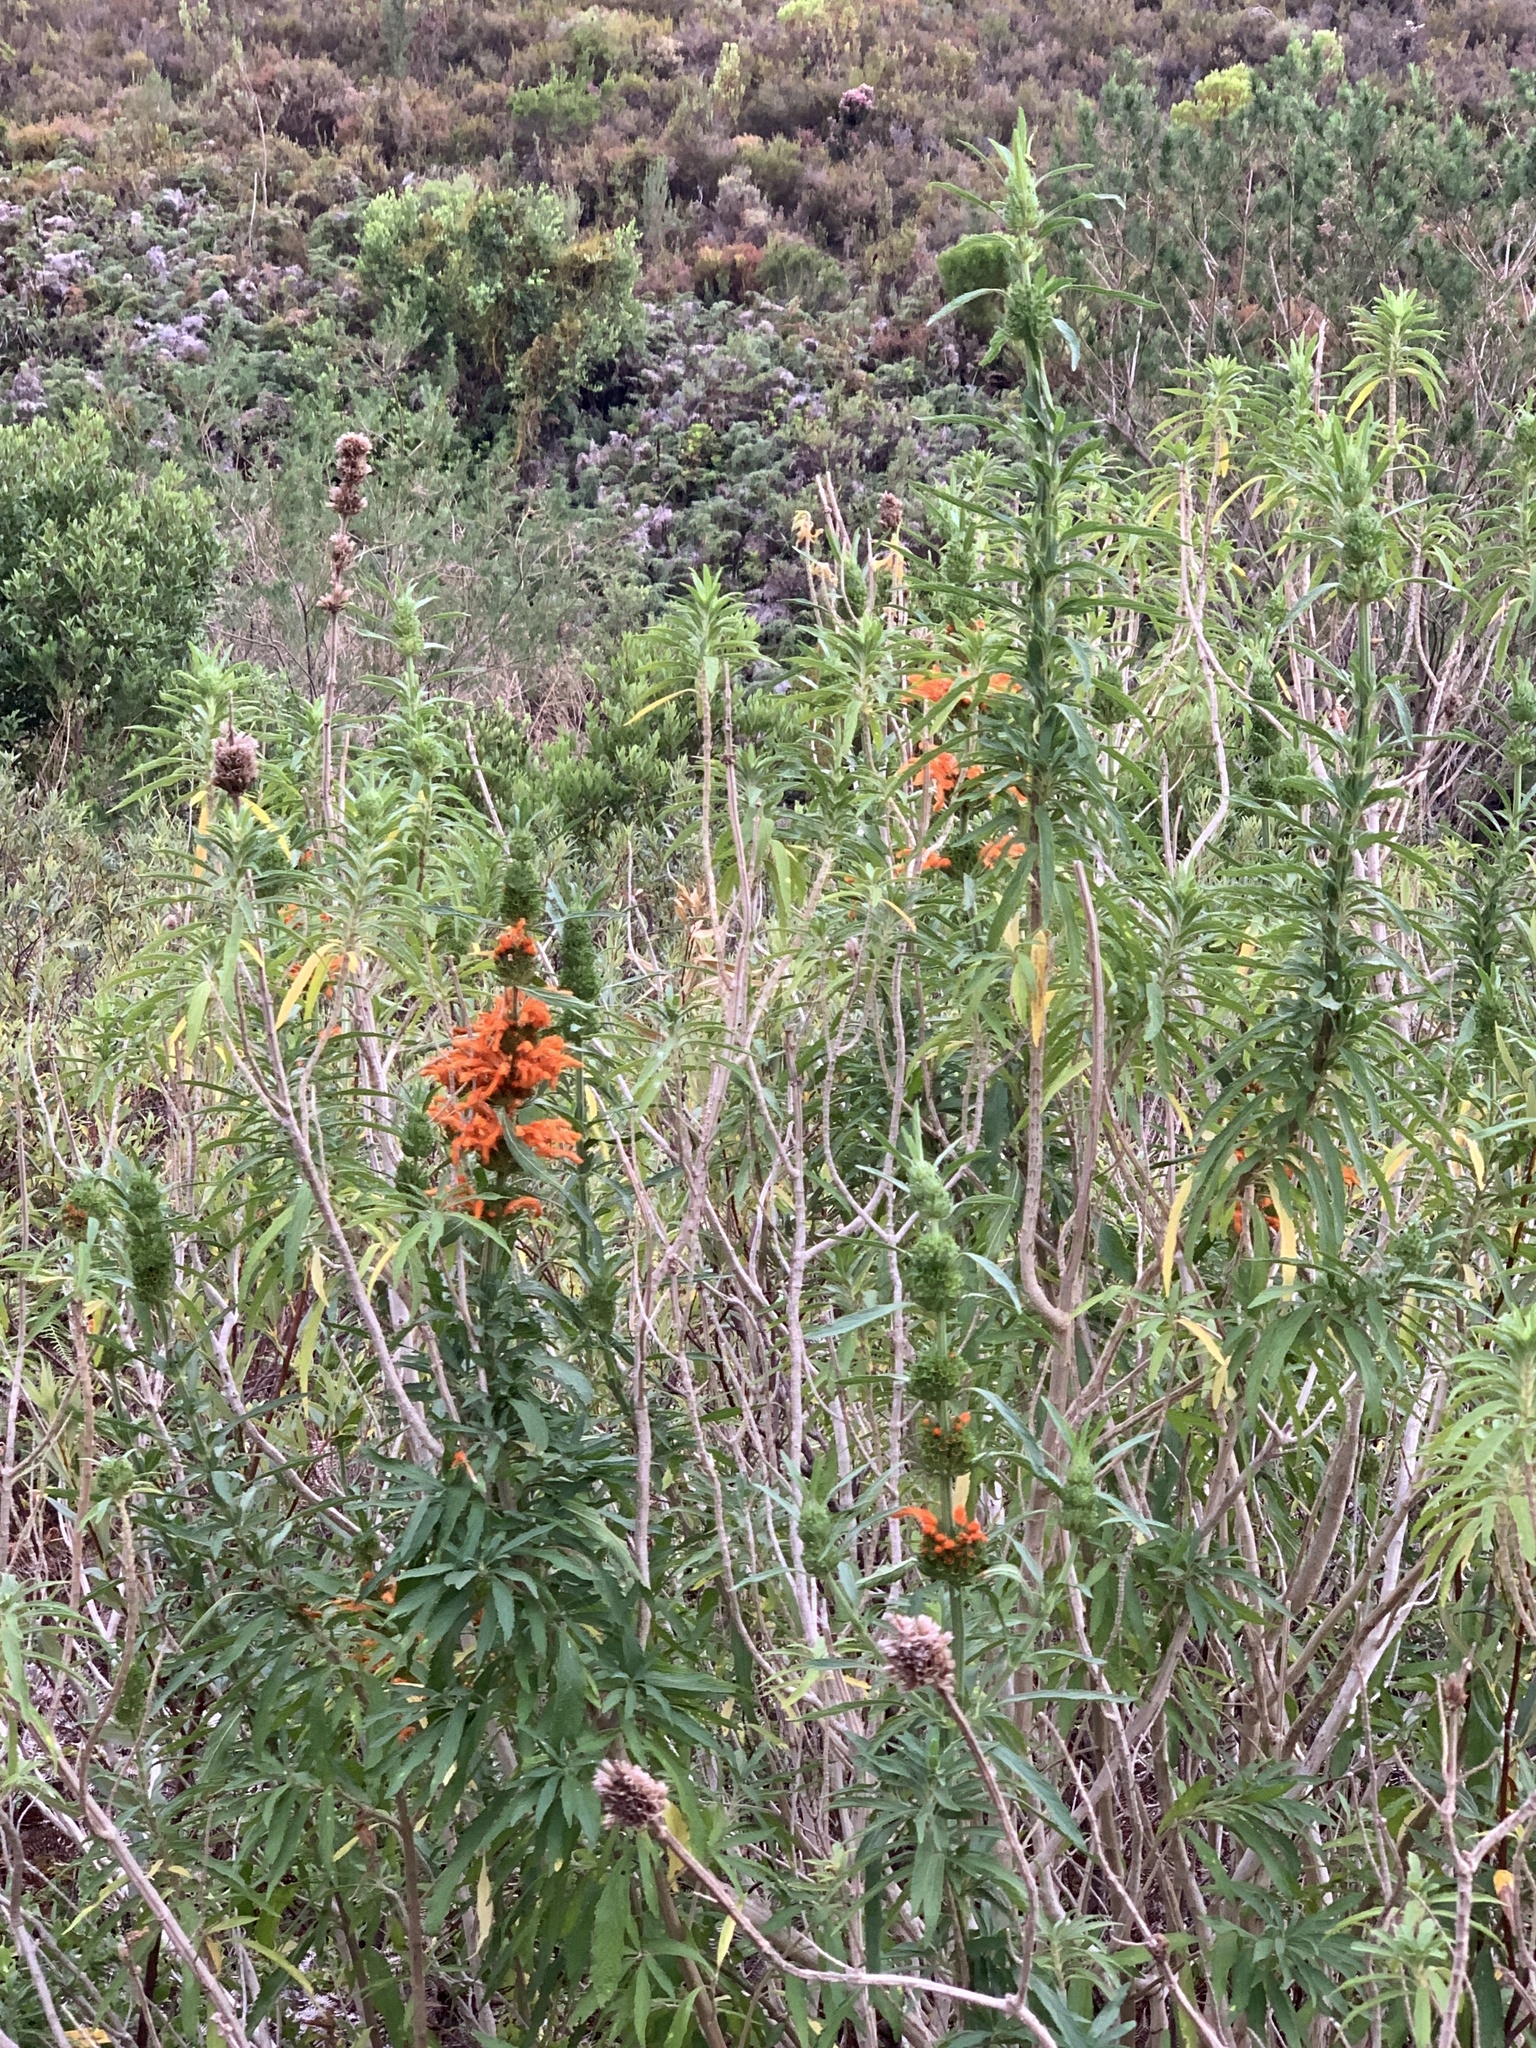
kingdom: Plantae
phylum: Tracheophyta
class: Magnoliopsida
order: Lamiales
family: Lamiaceae
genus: Leonotis
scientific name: Leonotis leonurus
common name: Lion's ear
